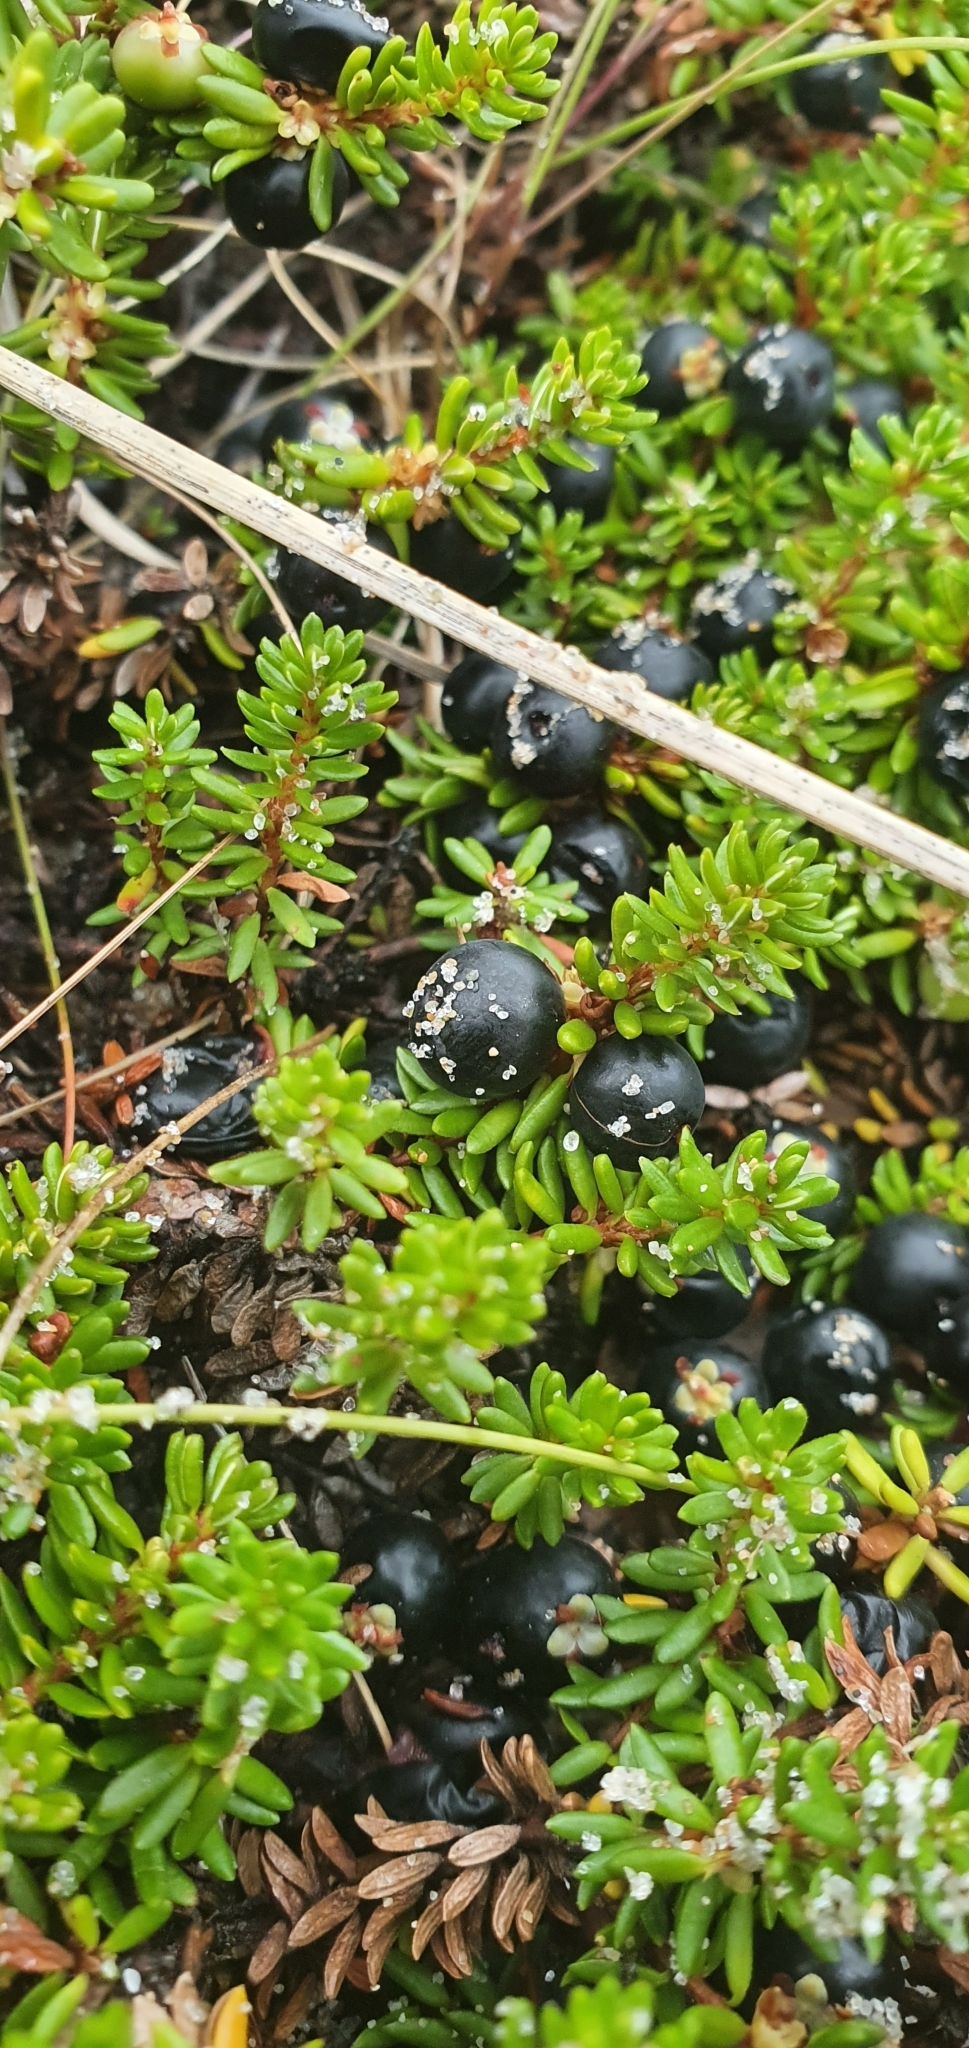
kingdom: Plantae
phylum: Tracheophyta
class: Magnoliopsida
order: Ericales
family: Ericaceae
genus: Empetrum
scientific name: Empetrum nigrum
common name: Black crowberry
